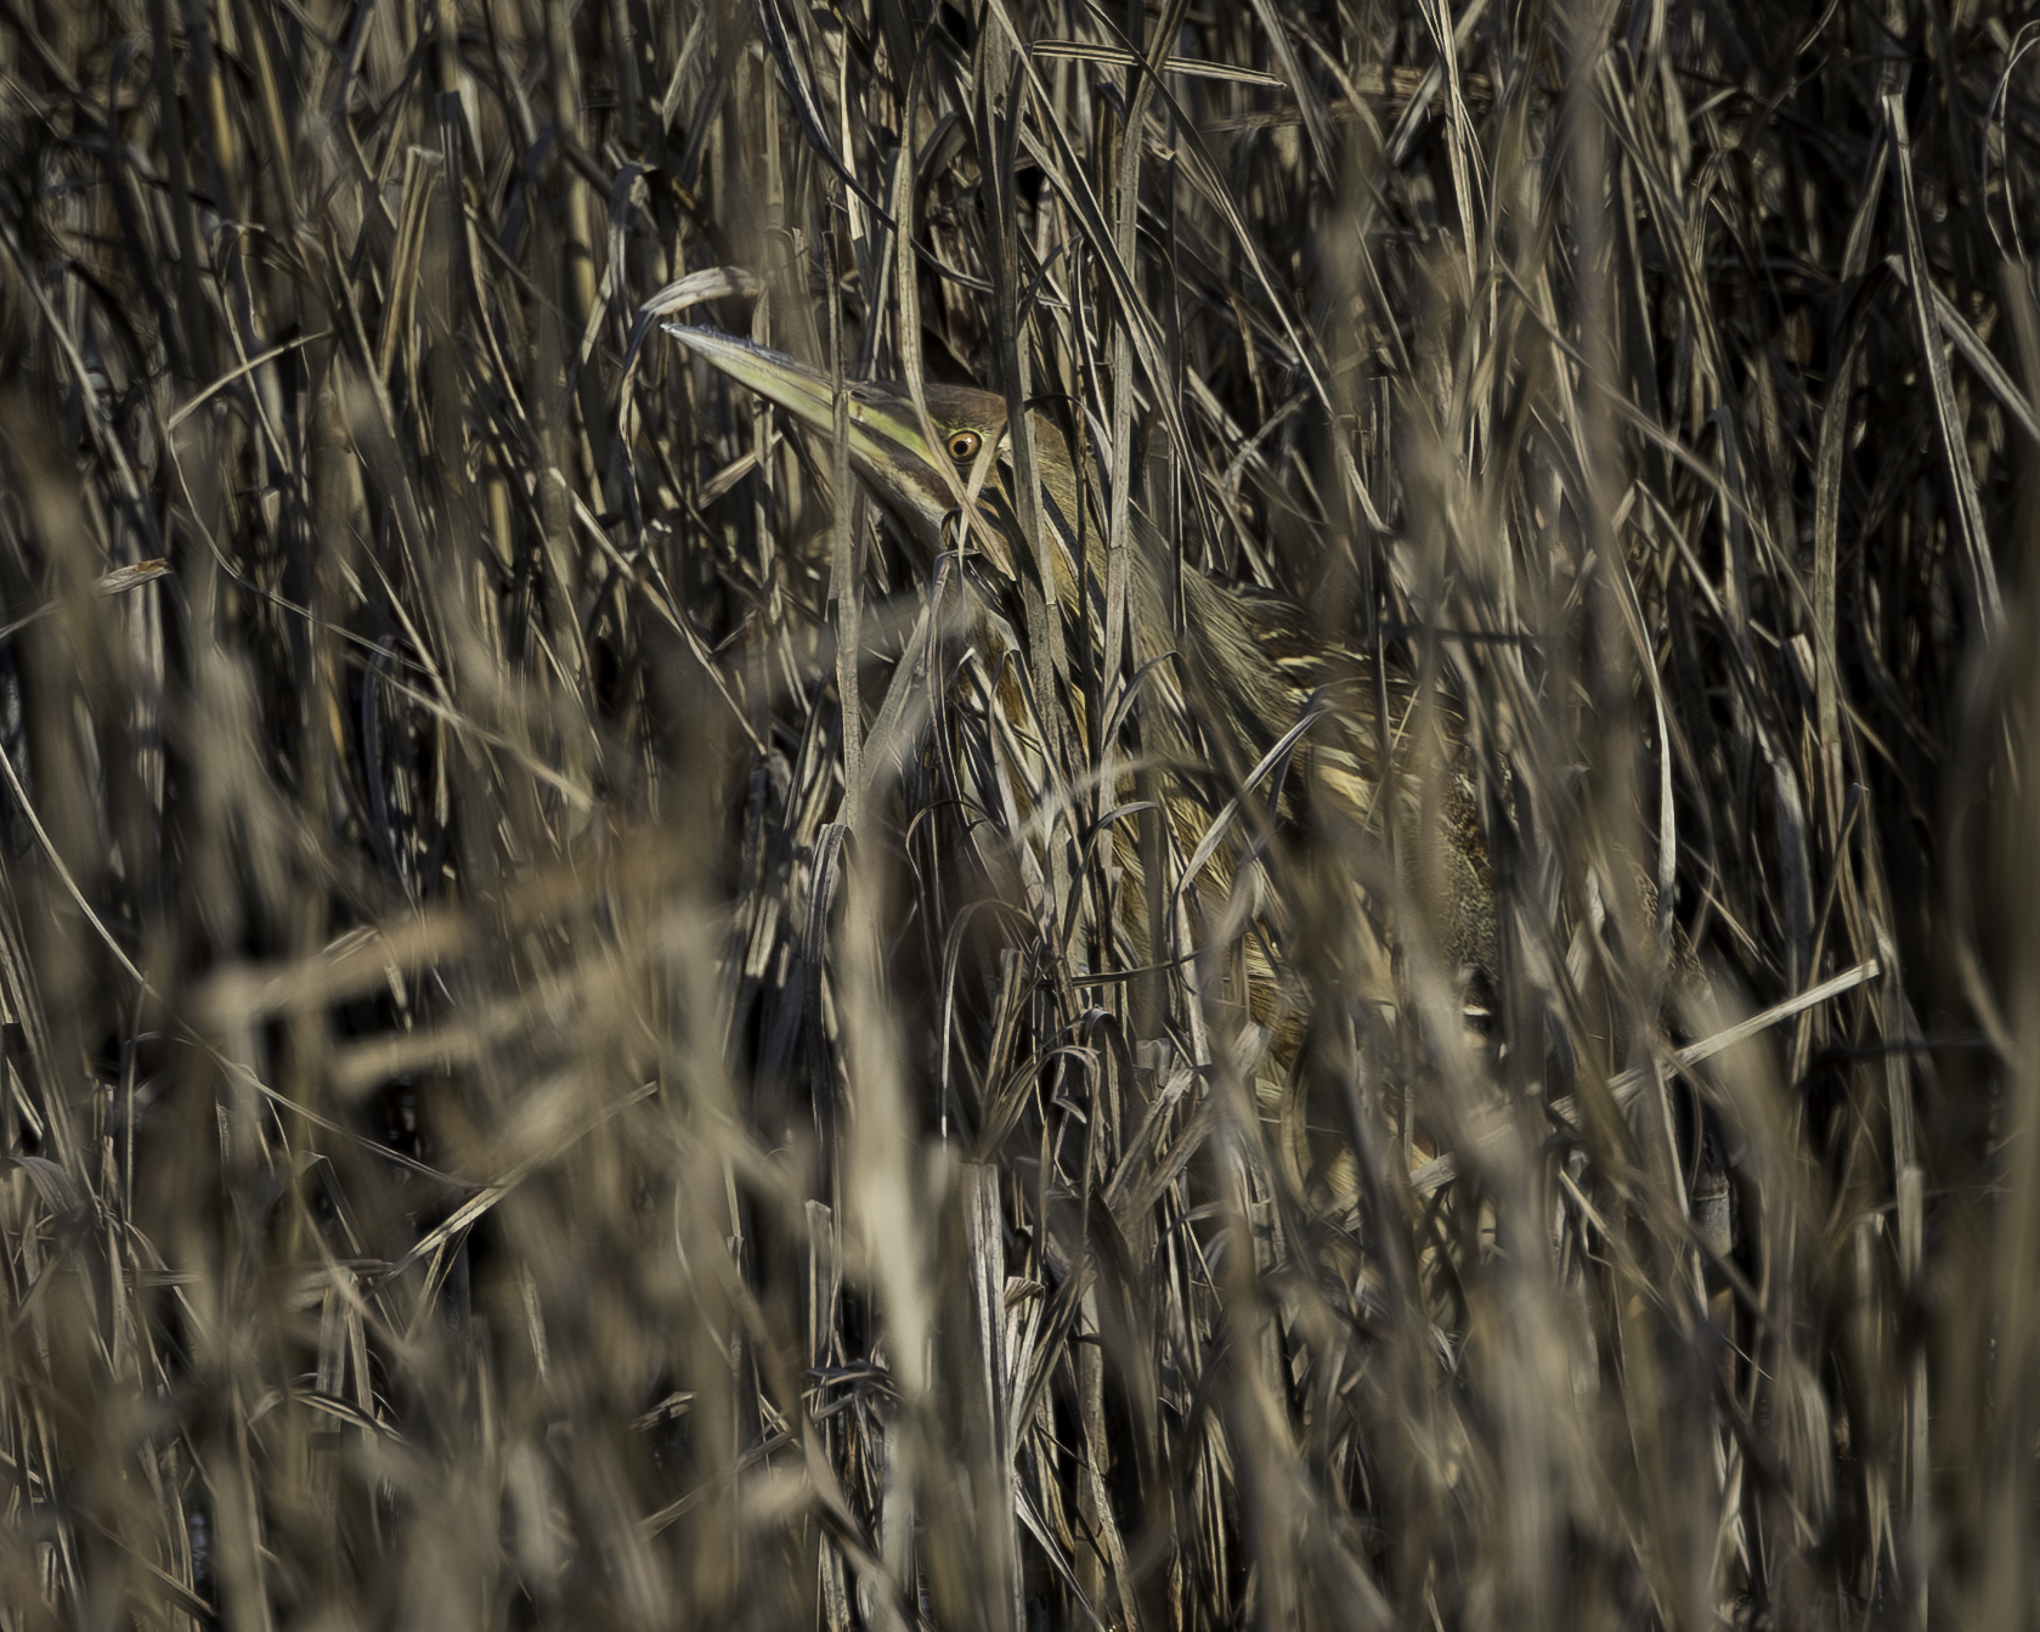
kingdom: Animalia
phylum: Chordata
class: Aves
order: Pelecaniformes
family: Ardeidae
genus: Botaurus
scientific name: Botaurus lentiginosus
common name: American bittern
